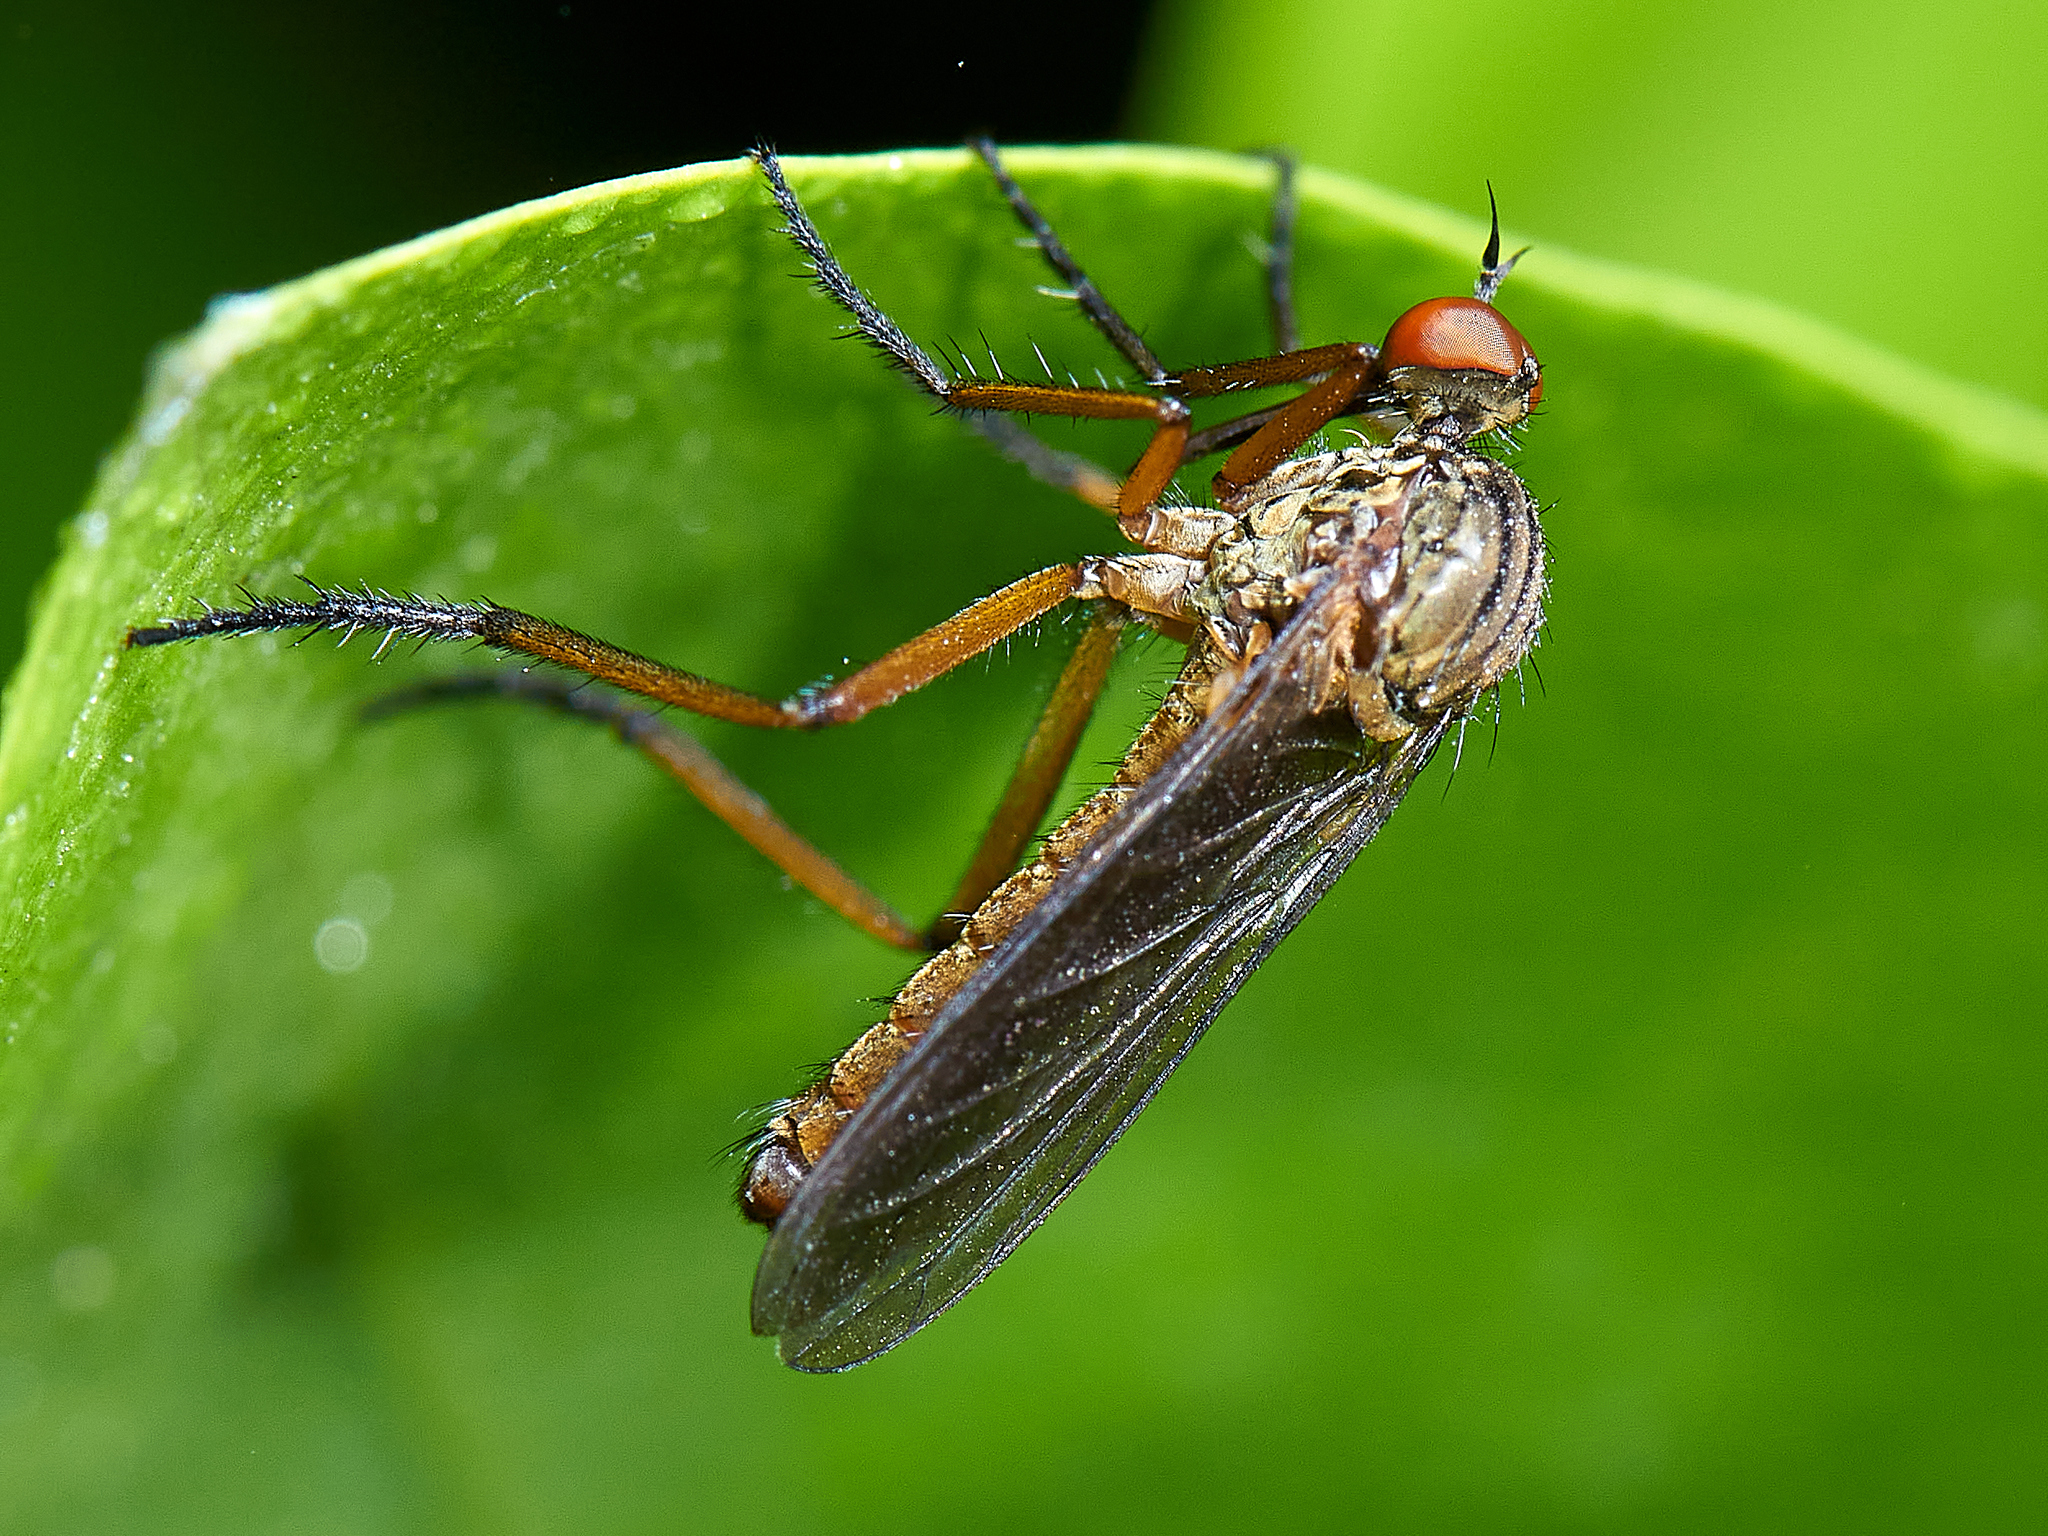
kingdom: Animalia
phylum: Arthropoda
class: Insecta
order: Diptera
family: Empididae
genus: Empis
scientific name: Empis livida
